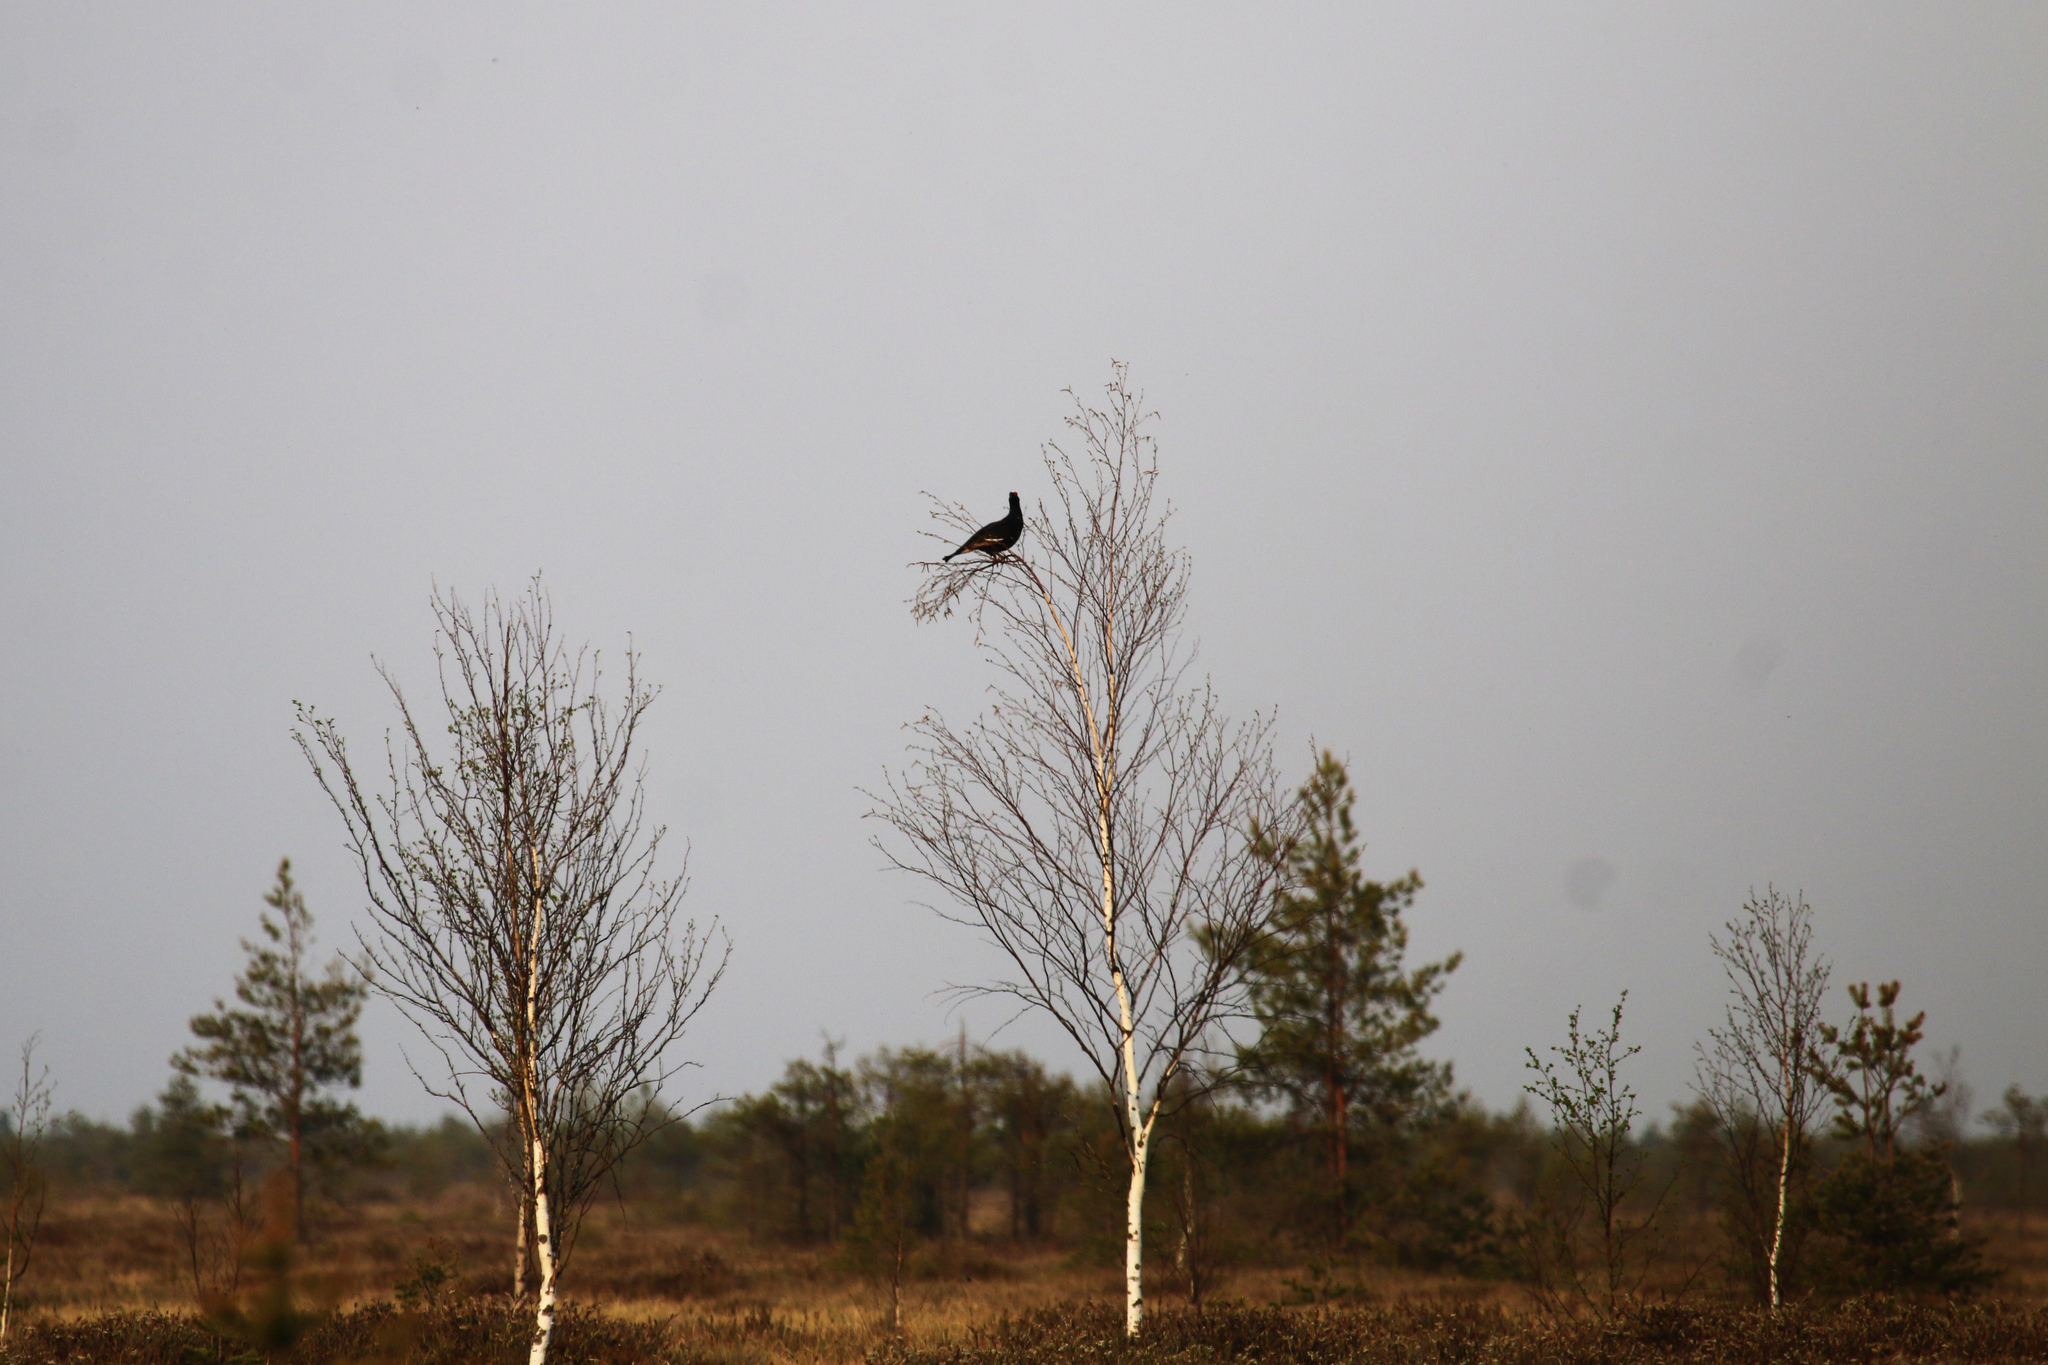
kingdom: Animalia
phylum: Chordata
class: Aves
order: Galliformes
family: Phasianidae
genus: Lyrurus
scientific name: Lyrurus tetrix
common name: Black grouse
